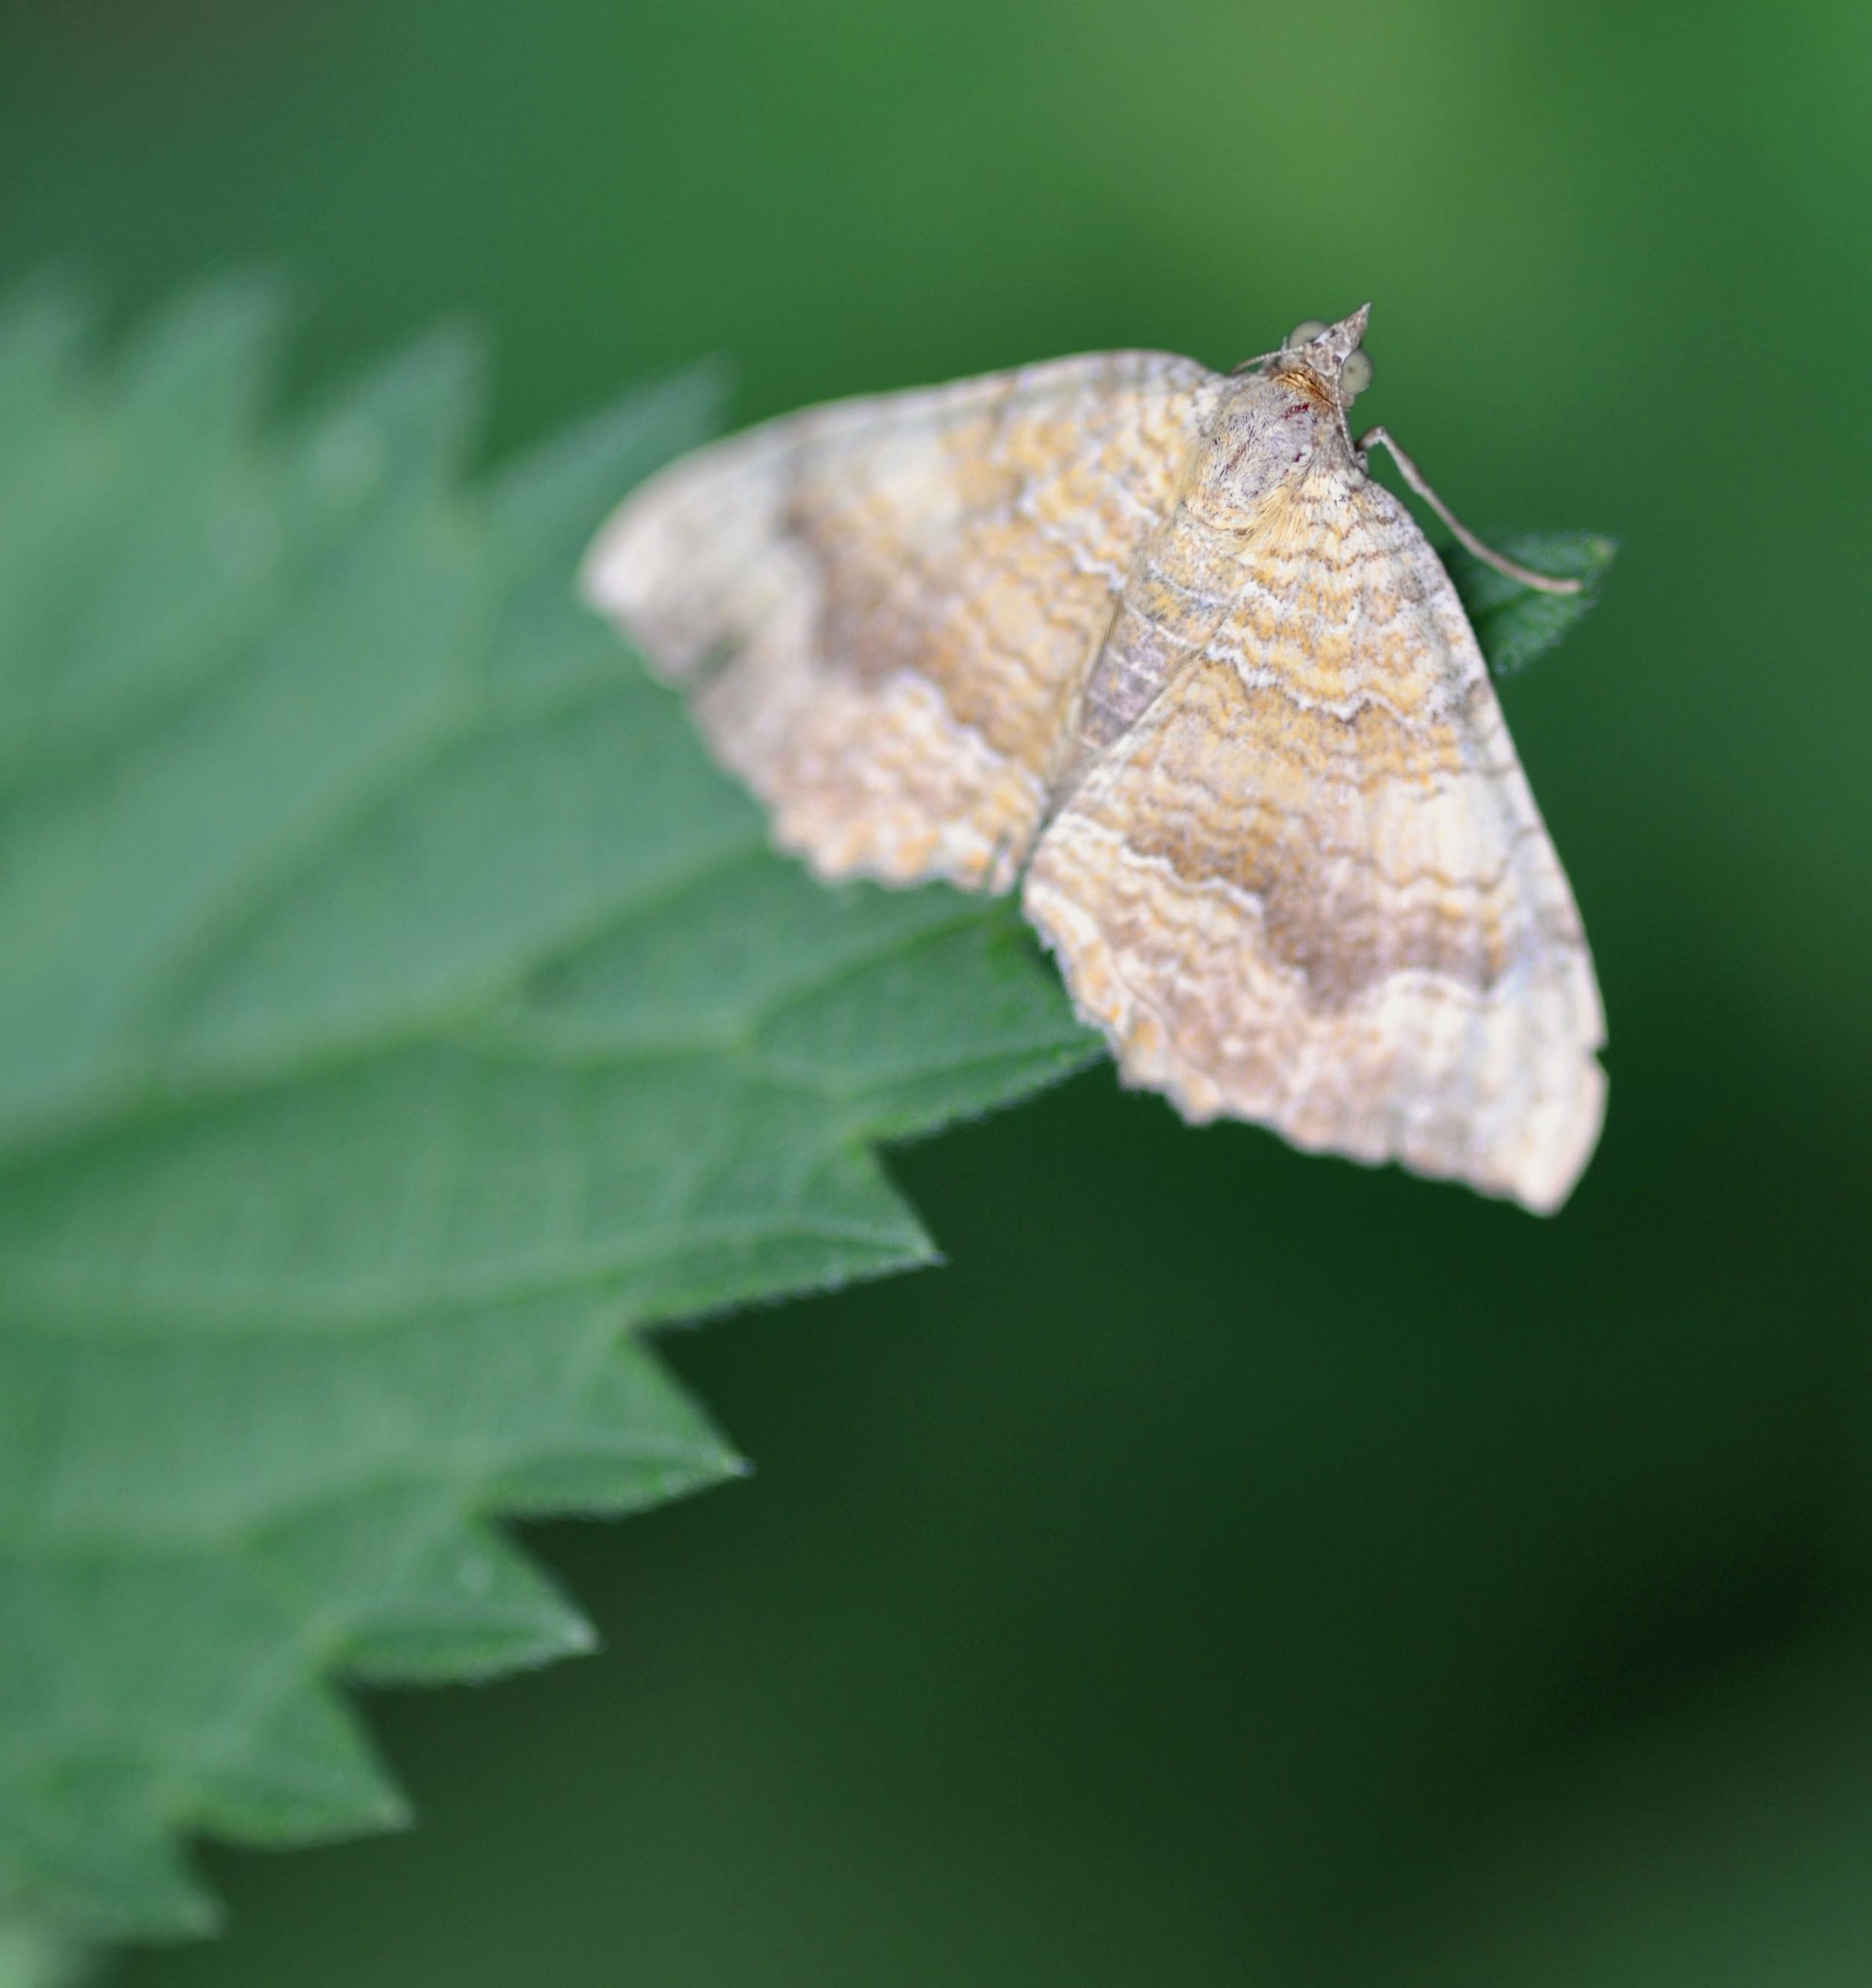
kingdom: Animalia
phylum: Arthropoda
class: Insecta
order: Lepidoptera
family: Geometridae
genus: Camptogramma
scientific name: Camptogramma bilineata
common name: Yellow shell
